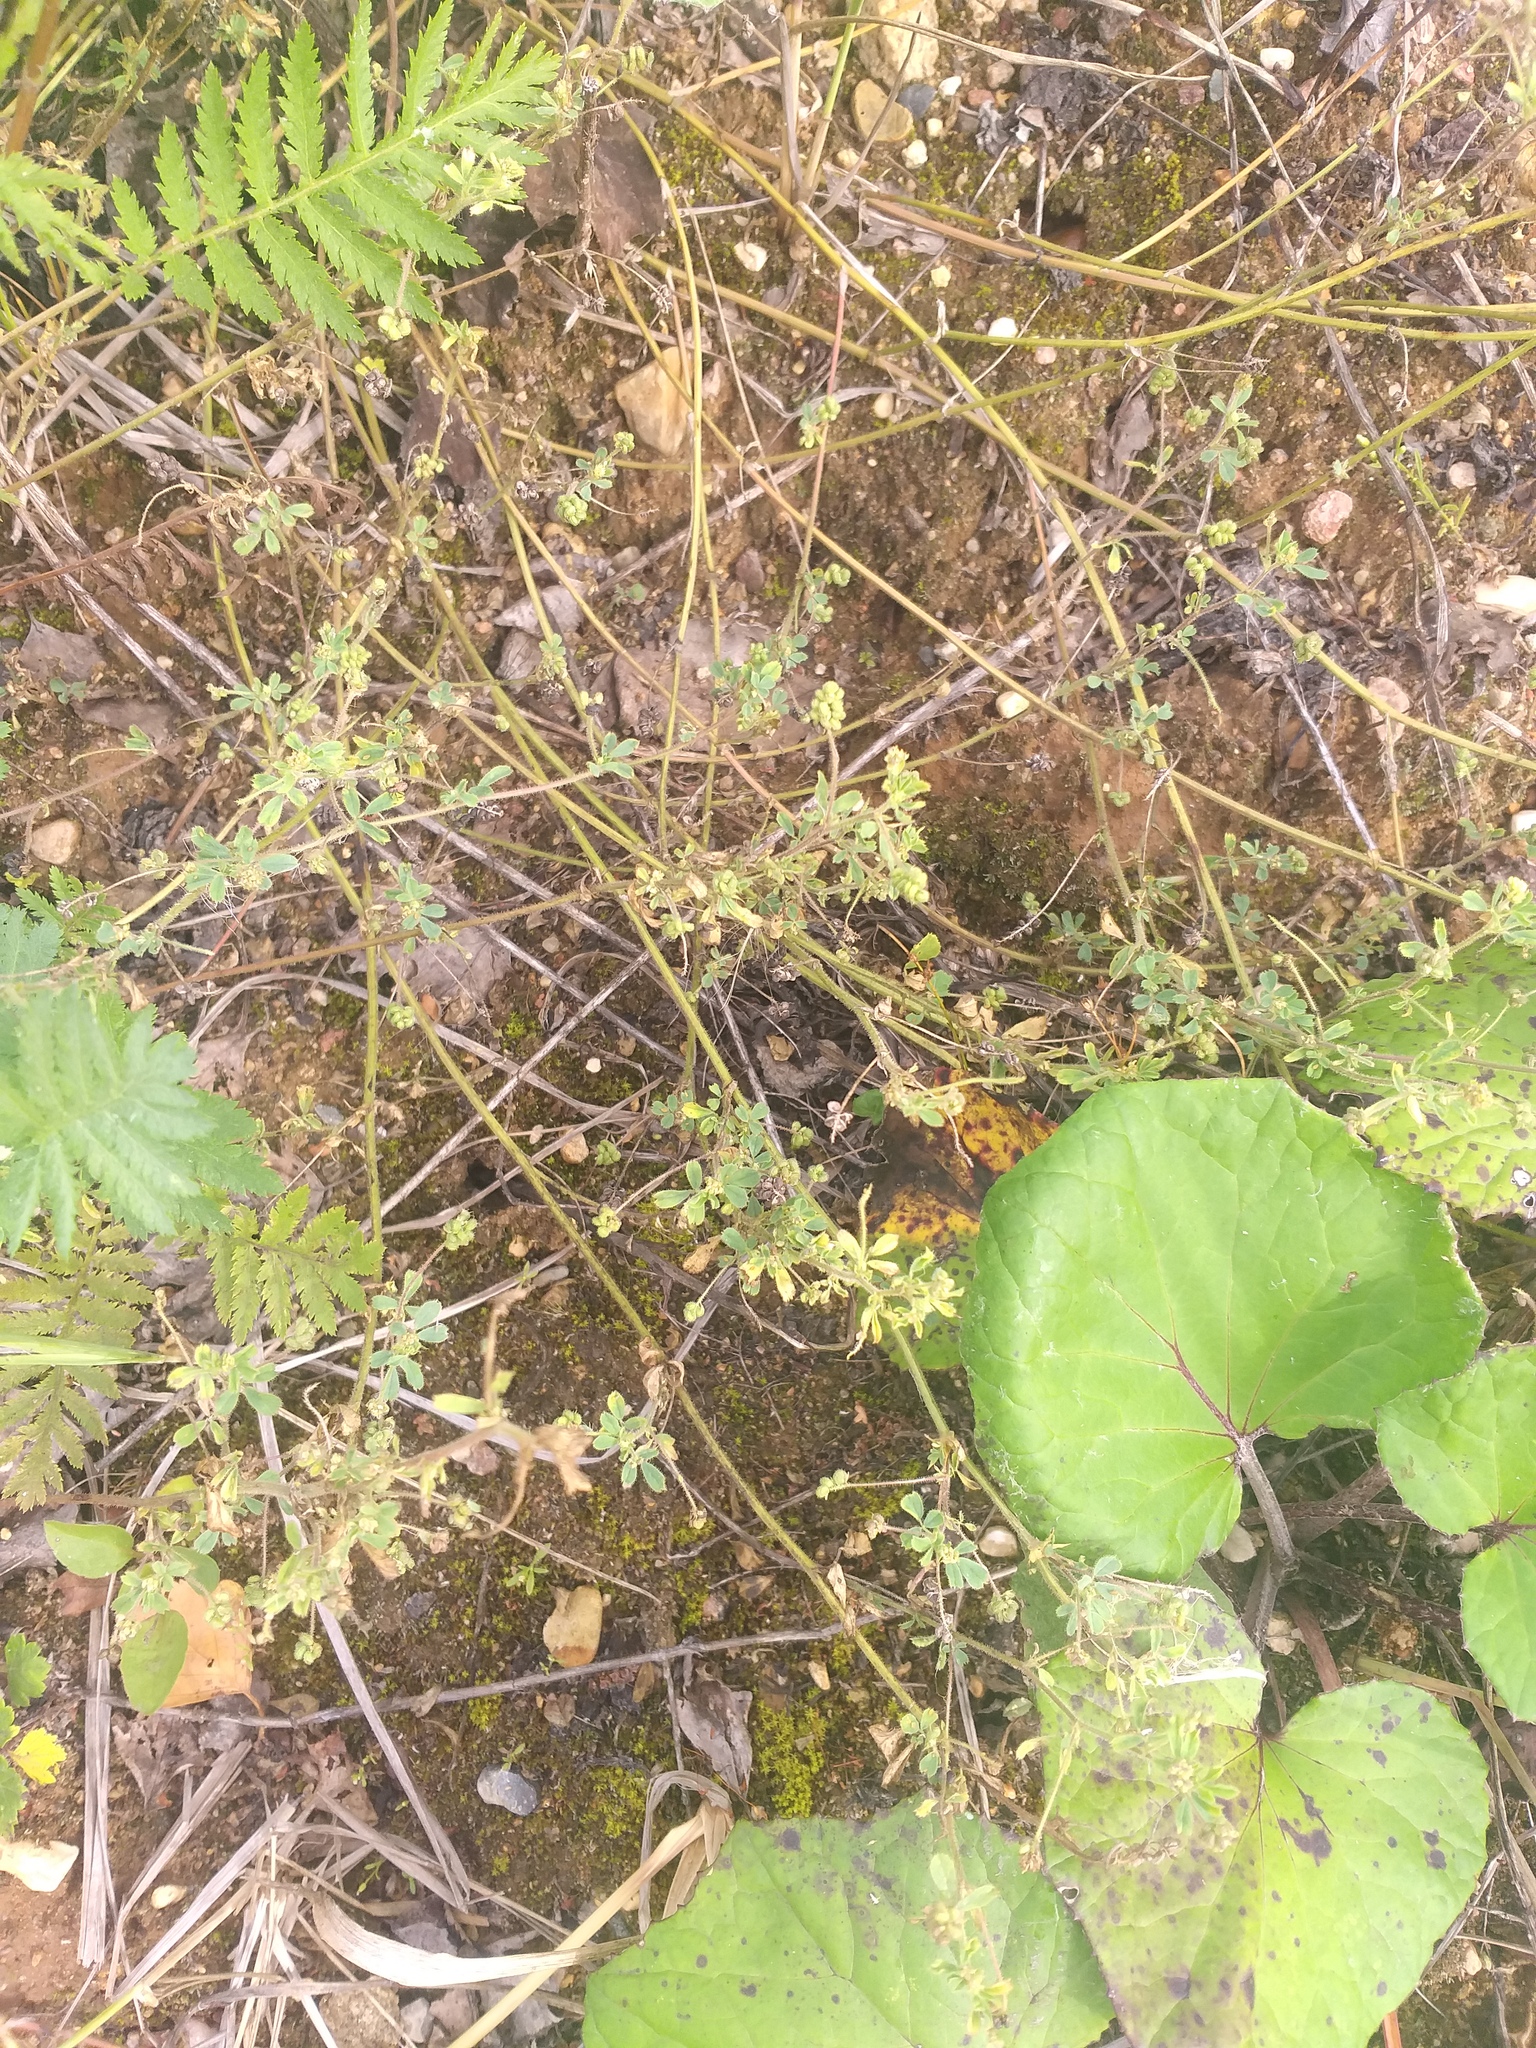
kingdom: Plantae
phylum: Tracheophyta
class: Magnoliopsida
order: Fabales
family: Fabaceae
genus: Medicago
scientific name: Medicago lupulina
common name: Black medick
